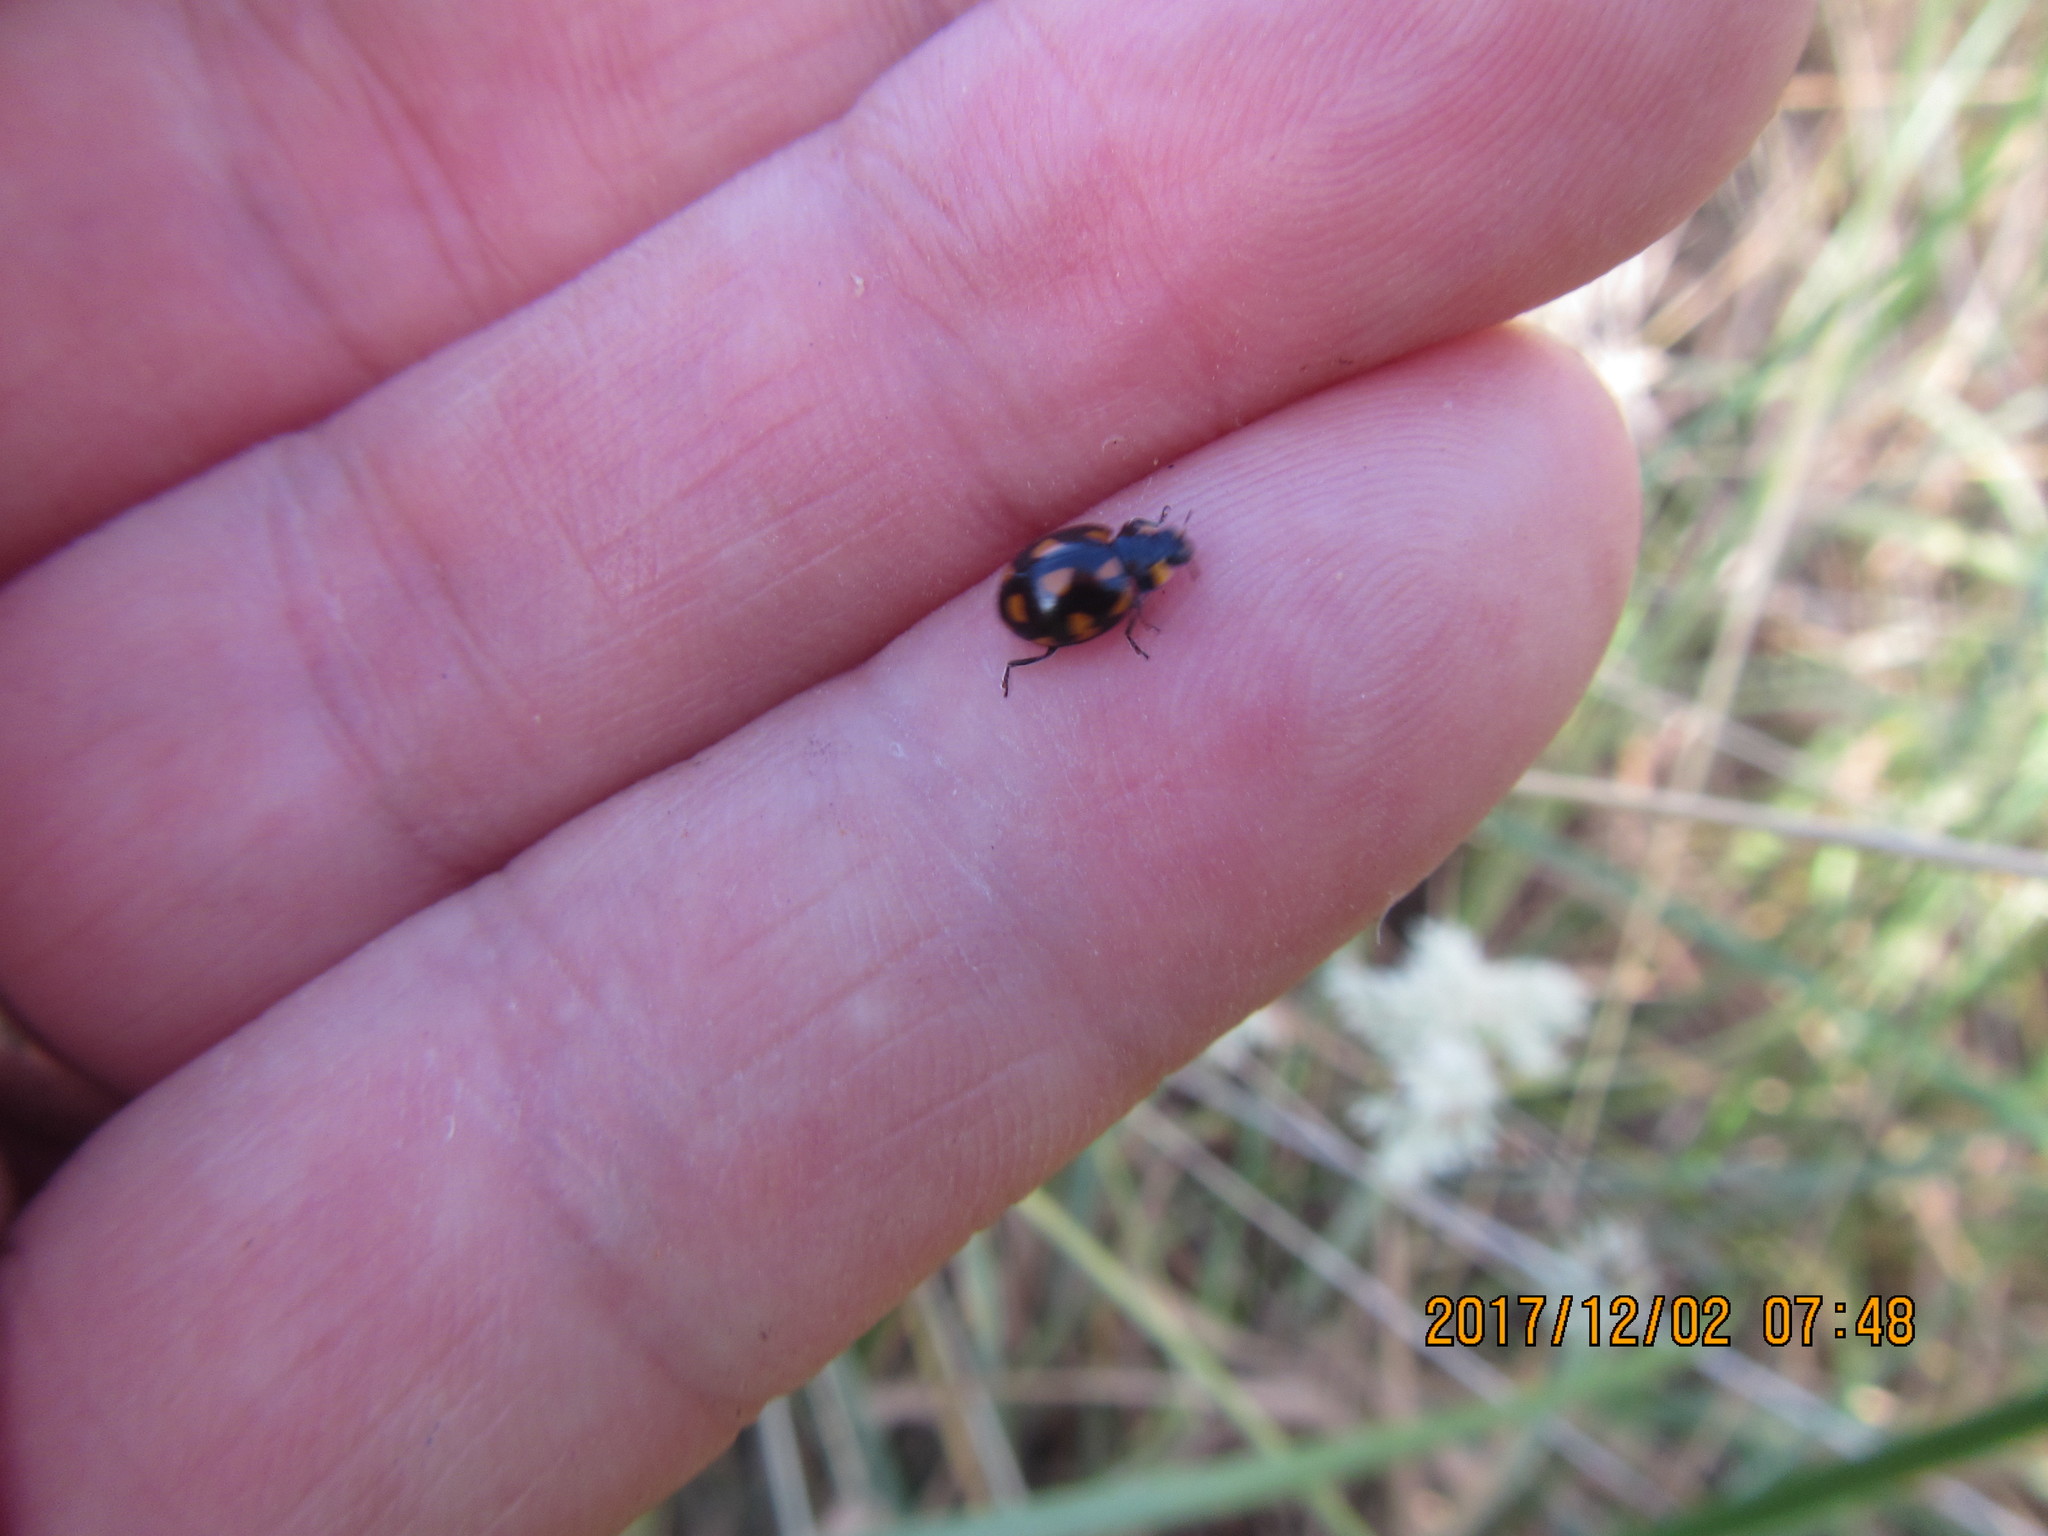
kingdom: Animalia
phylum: Arthropoda
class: Insecta
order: Coleoptera
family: Coccinellidae
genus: Coccinella
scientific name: Coccinella leonina
